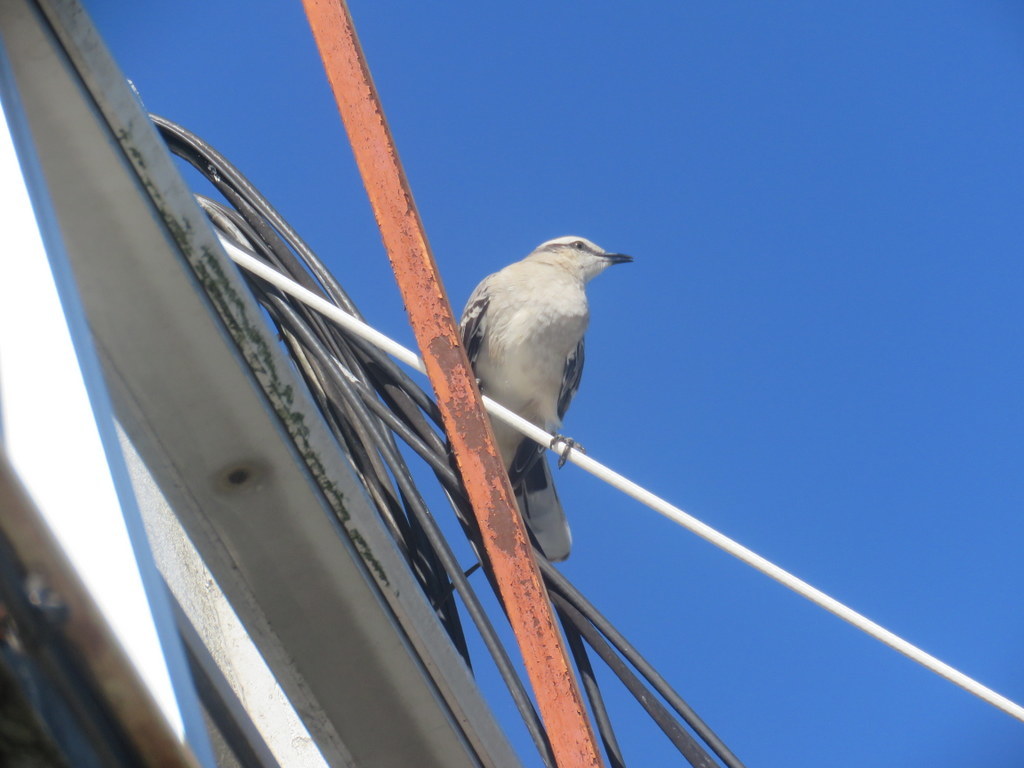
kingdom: Animalia
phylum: Chordata
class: Aves
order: Passeriformes
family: Mimidae
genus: Mimus
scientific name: Mimus saturninus
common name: Chalk-browed mockingbird
